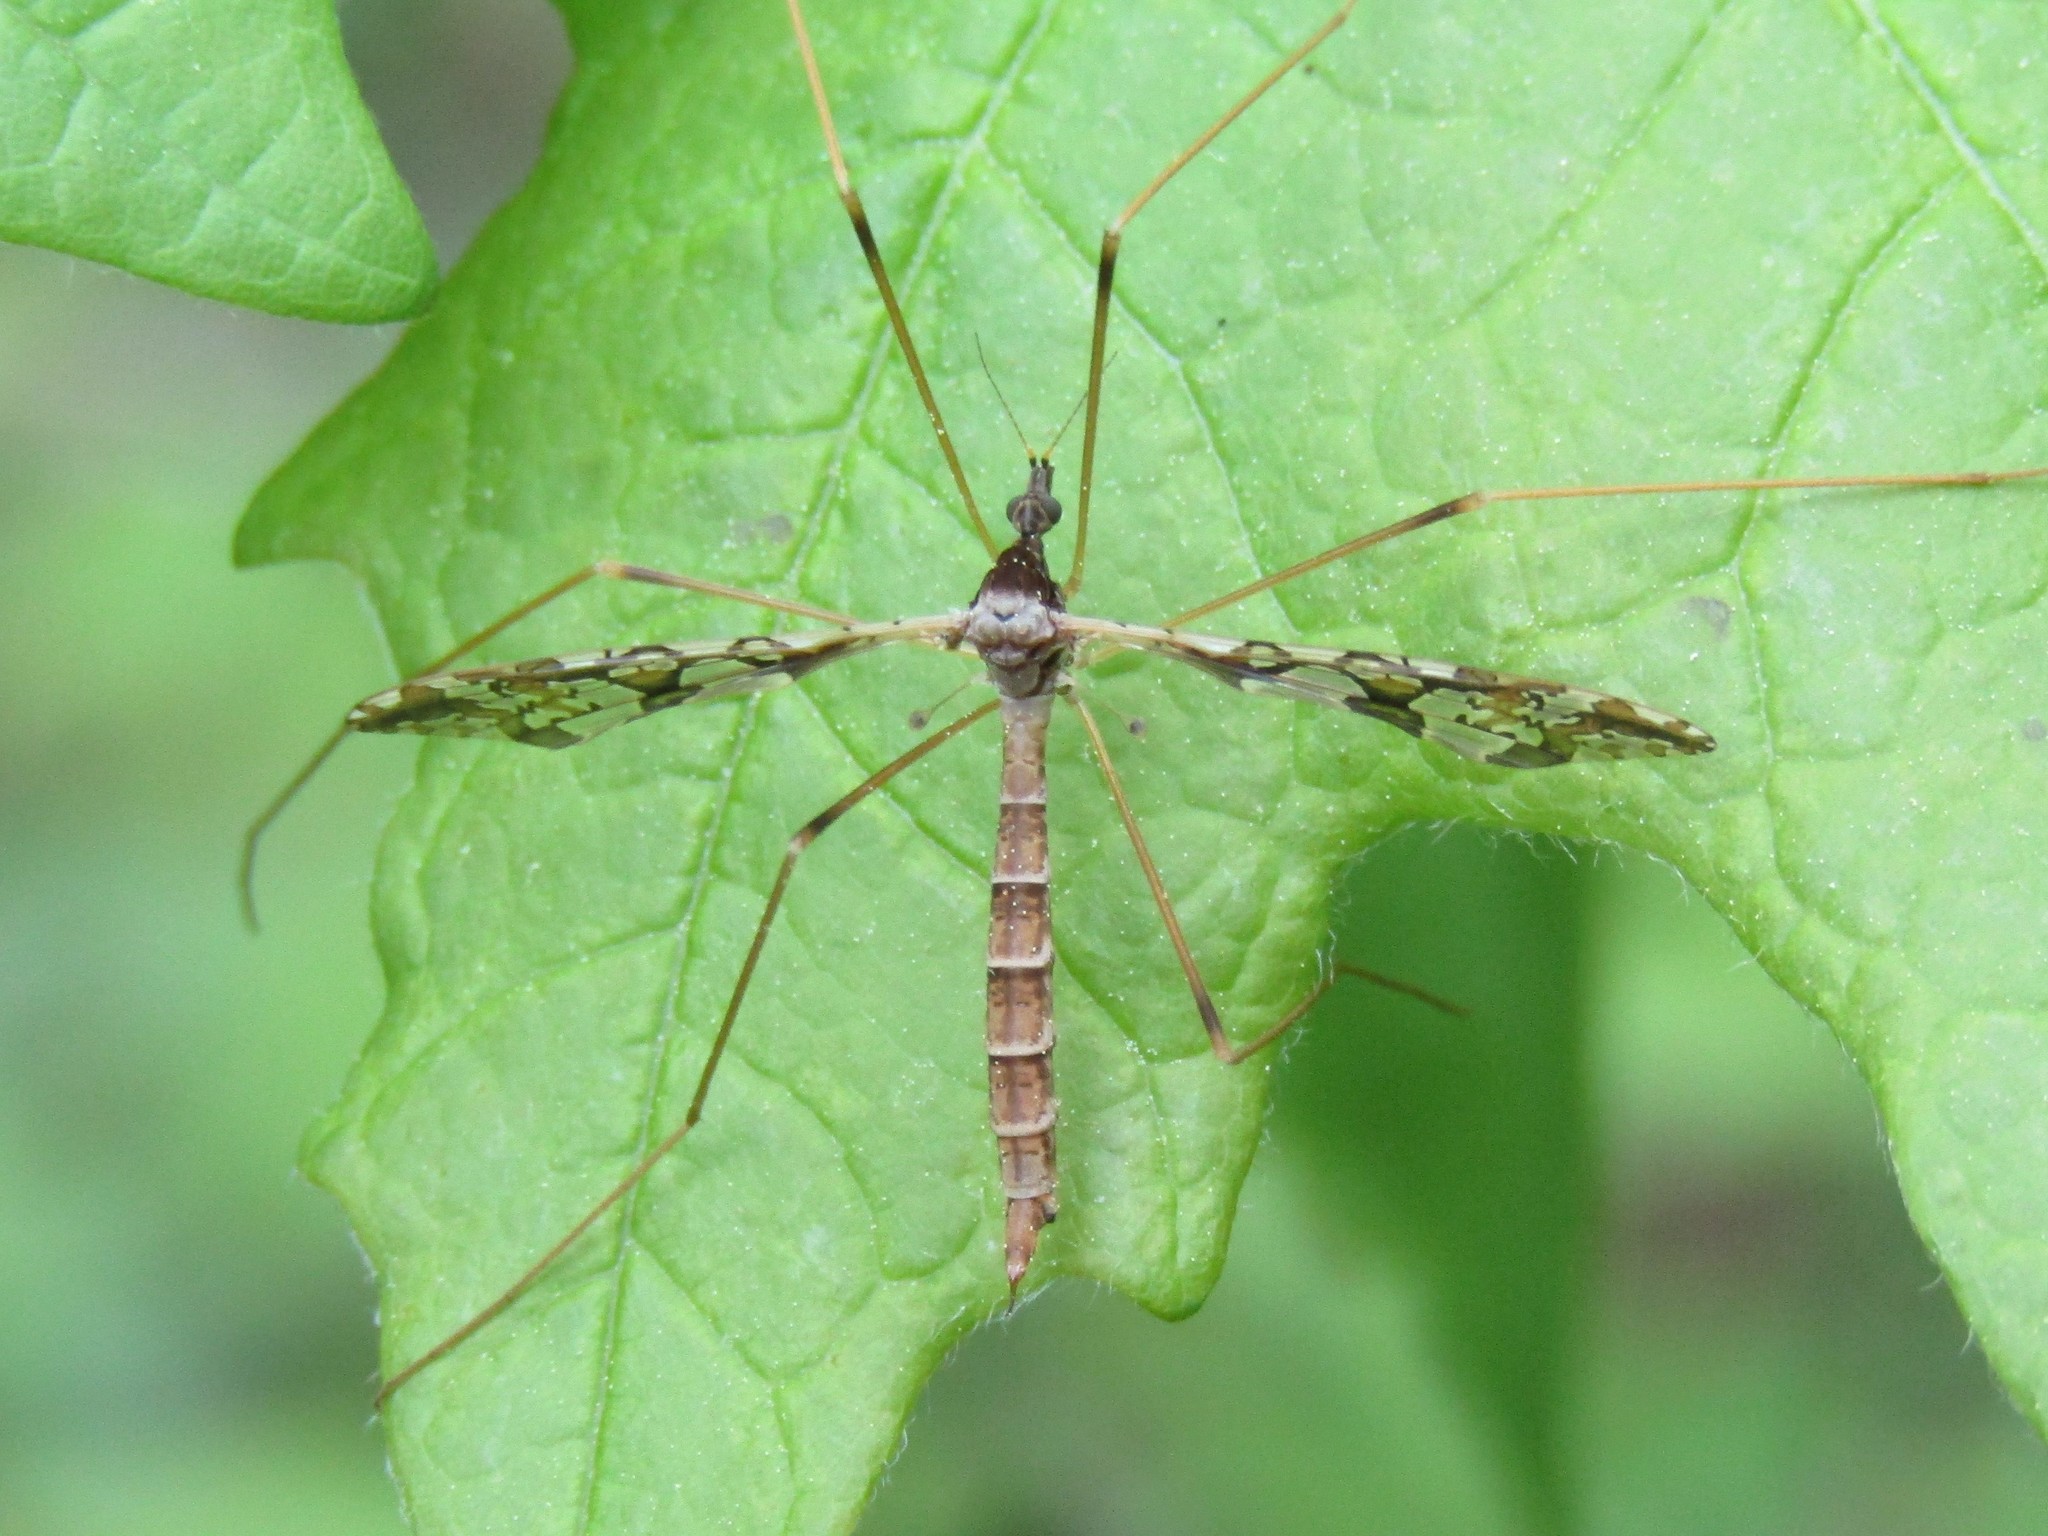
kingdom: Animalia
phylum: Arthropoda
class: Insecta
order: Diptera
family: Limoniidae
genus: Epiphragma
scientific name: Epiphragma solatrix
